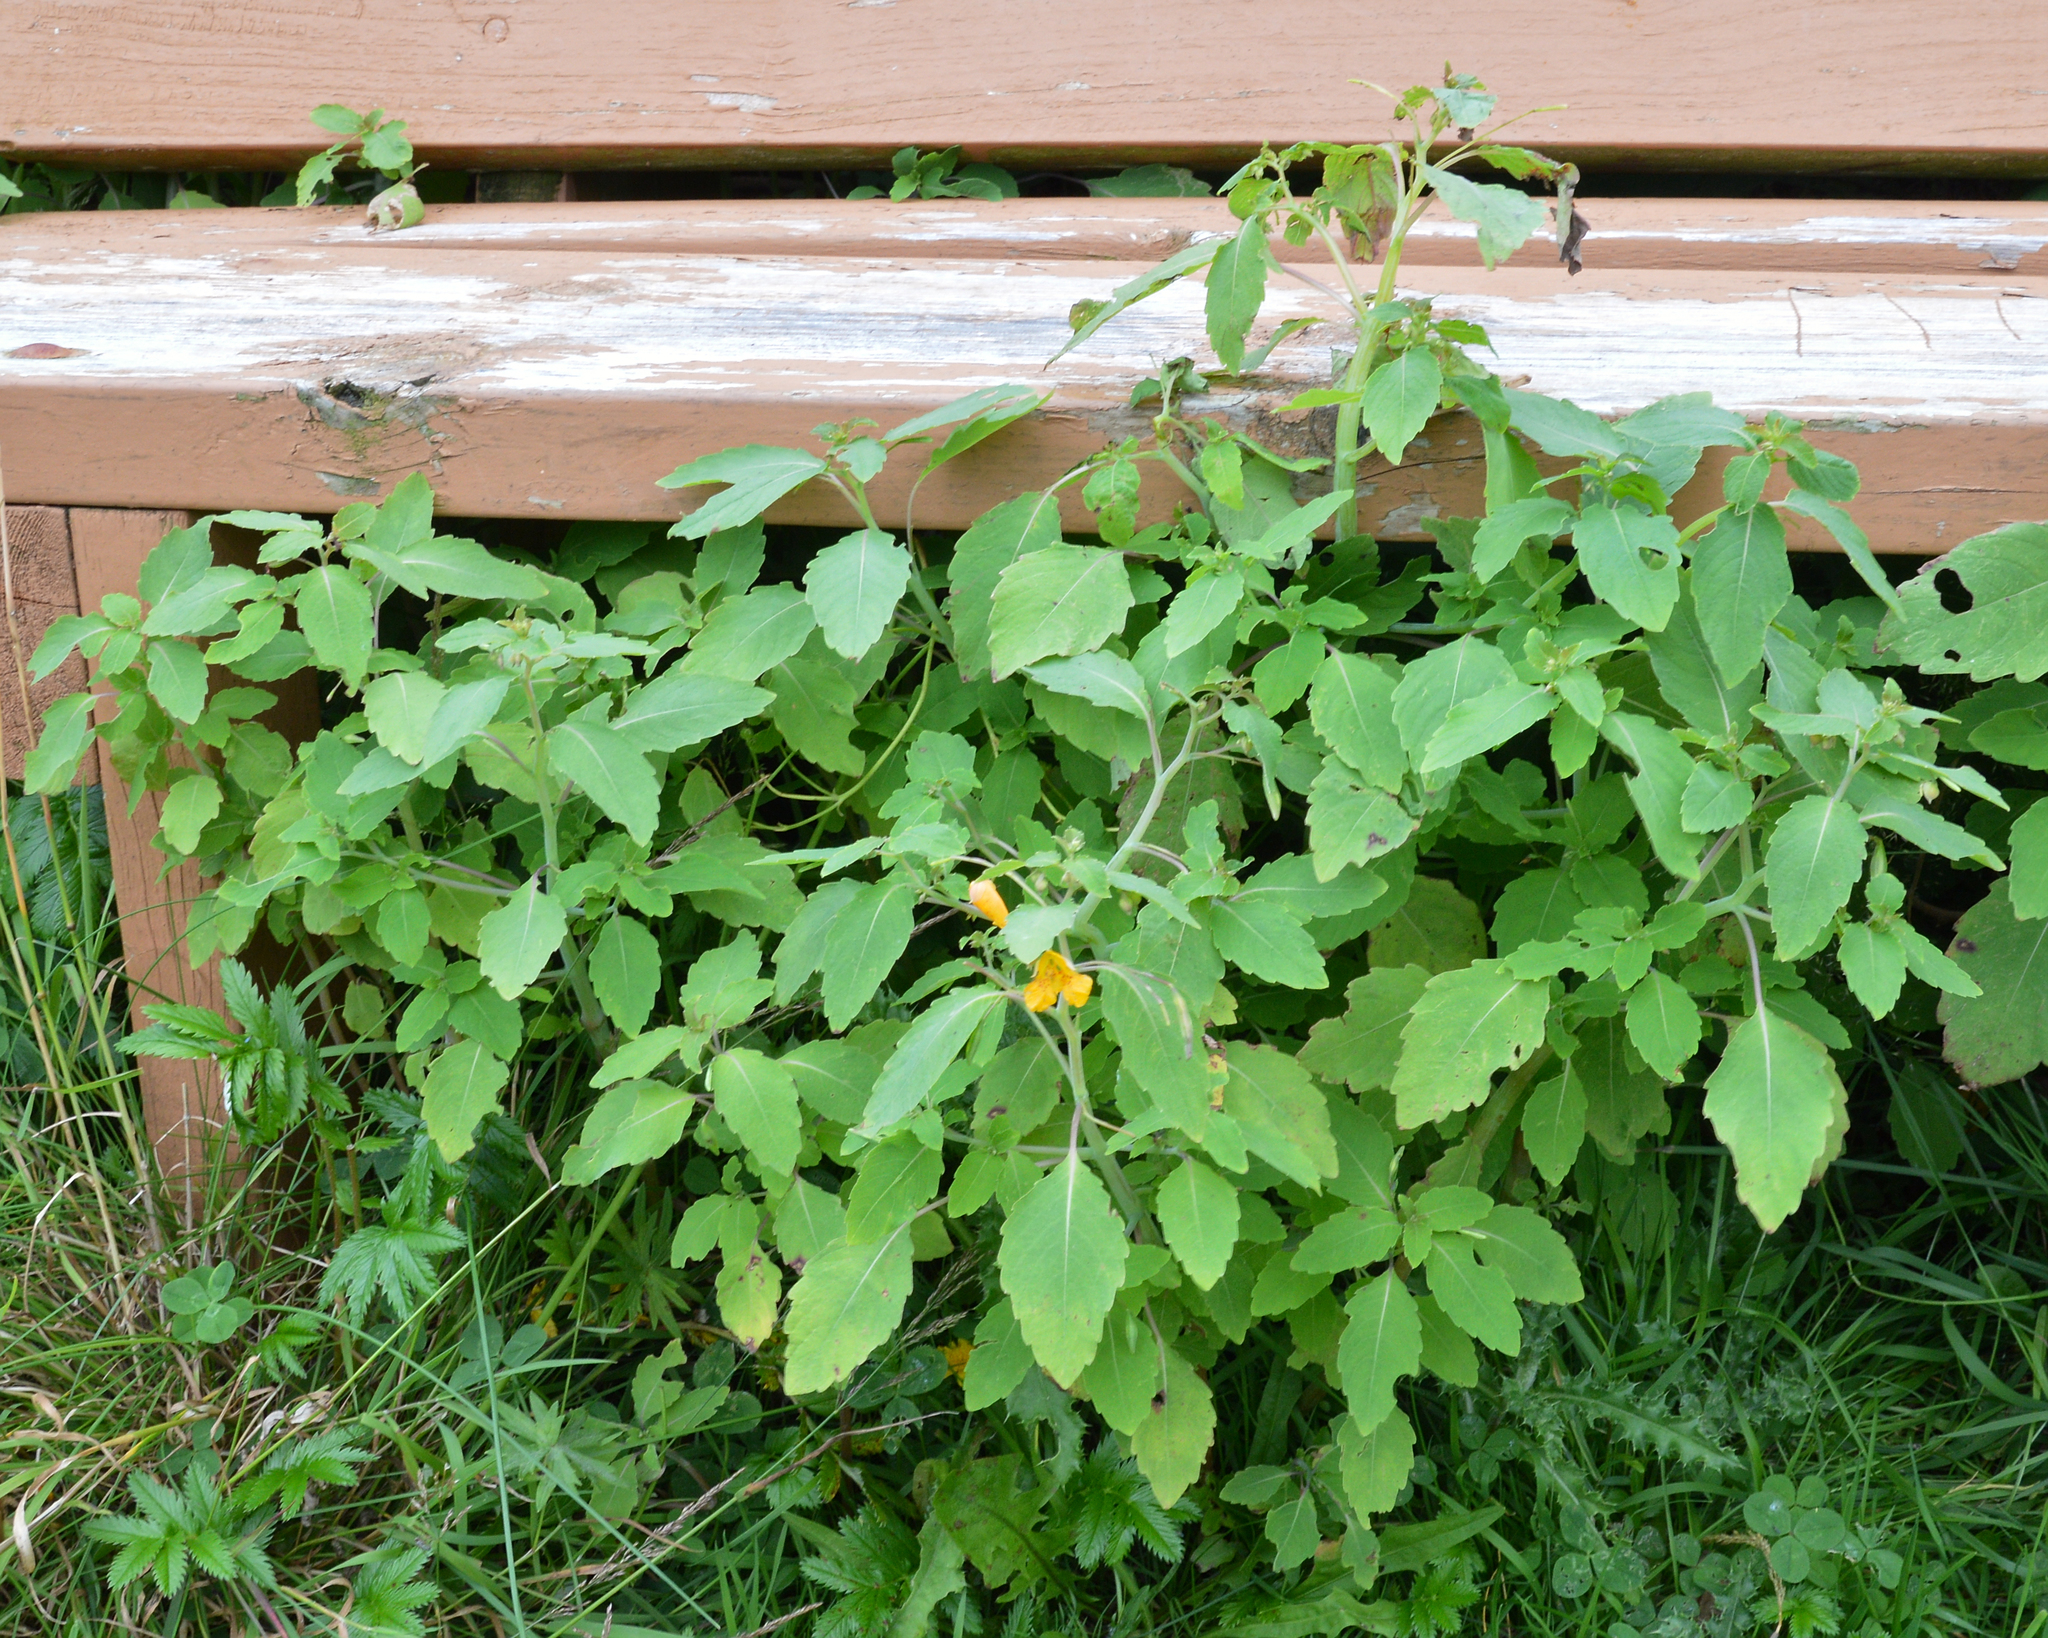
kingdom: Plantae
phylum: Tracheophyta
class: Magnoliopsida
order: Ericales
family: Balsaminaceae
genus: Impatiens
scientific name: Impatiens capensis
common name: Orange balsam
